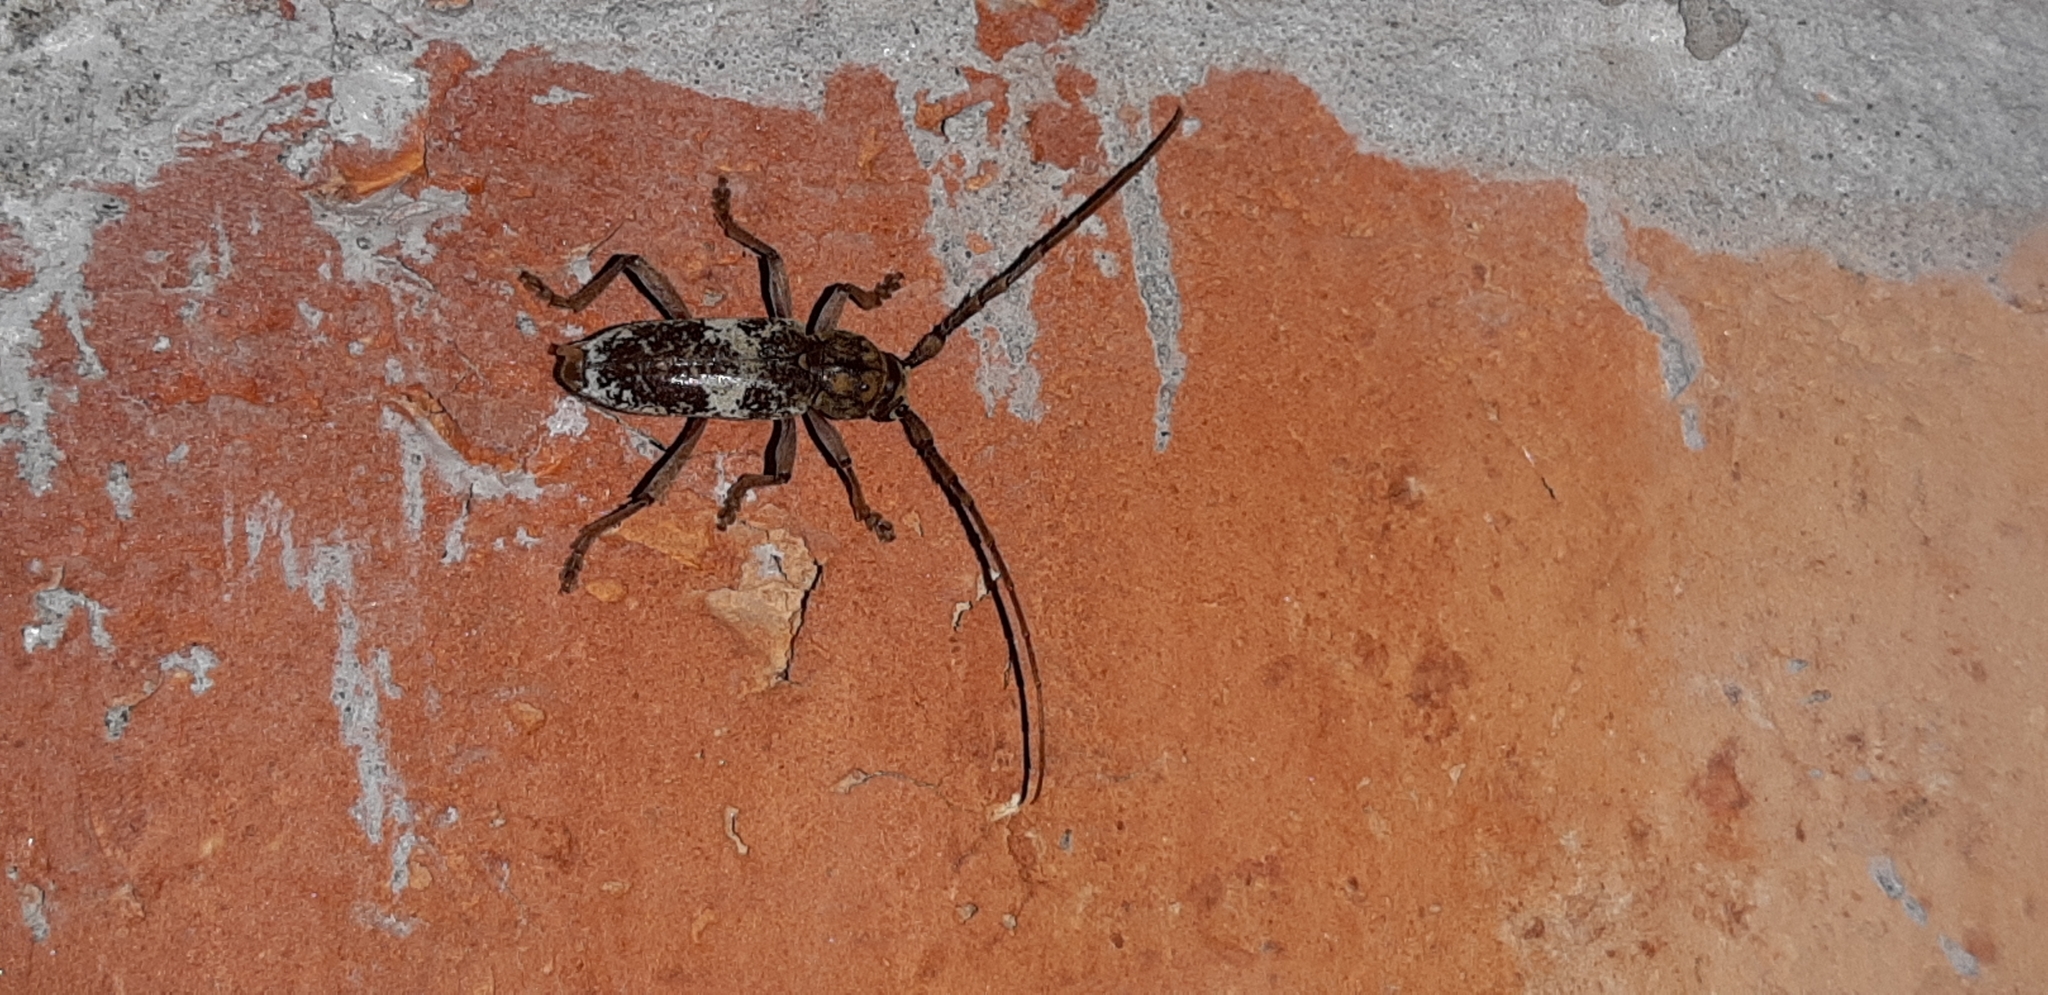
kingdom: Animalia
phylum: Arthropoda
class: Insecta
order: Coleoptera
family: Cerambycidae
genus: Lanephus
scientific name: Lanephus njumanii
